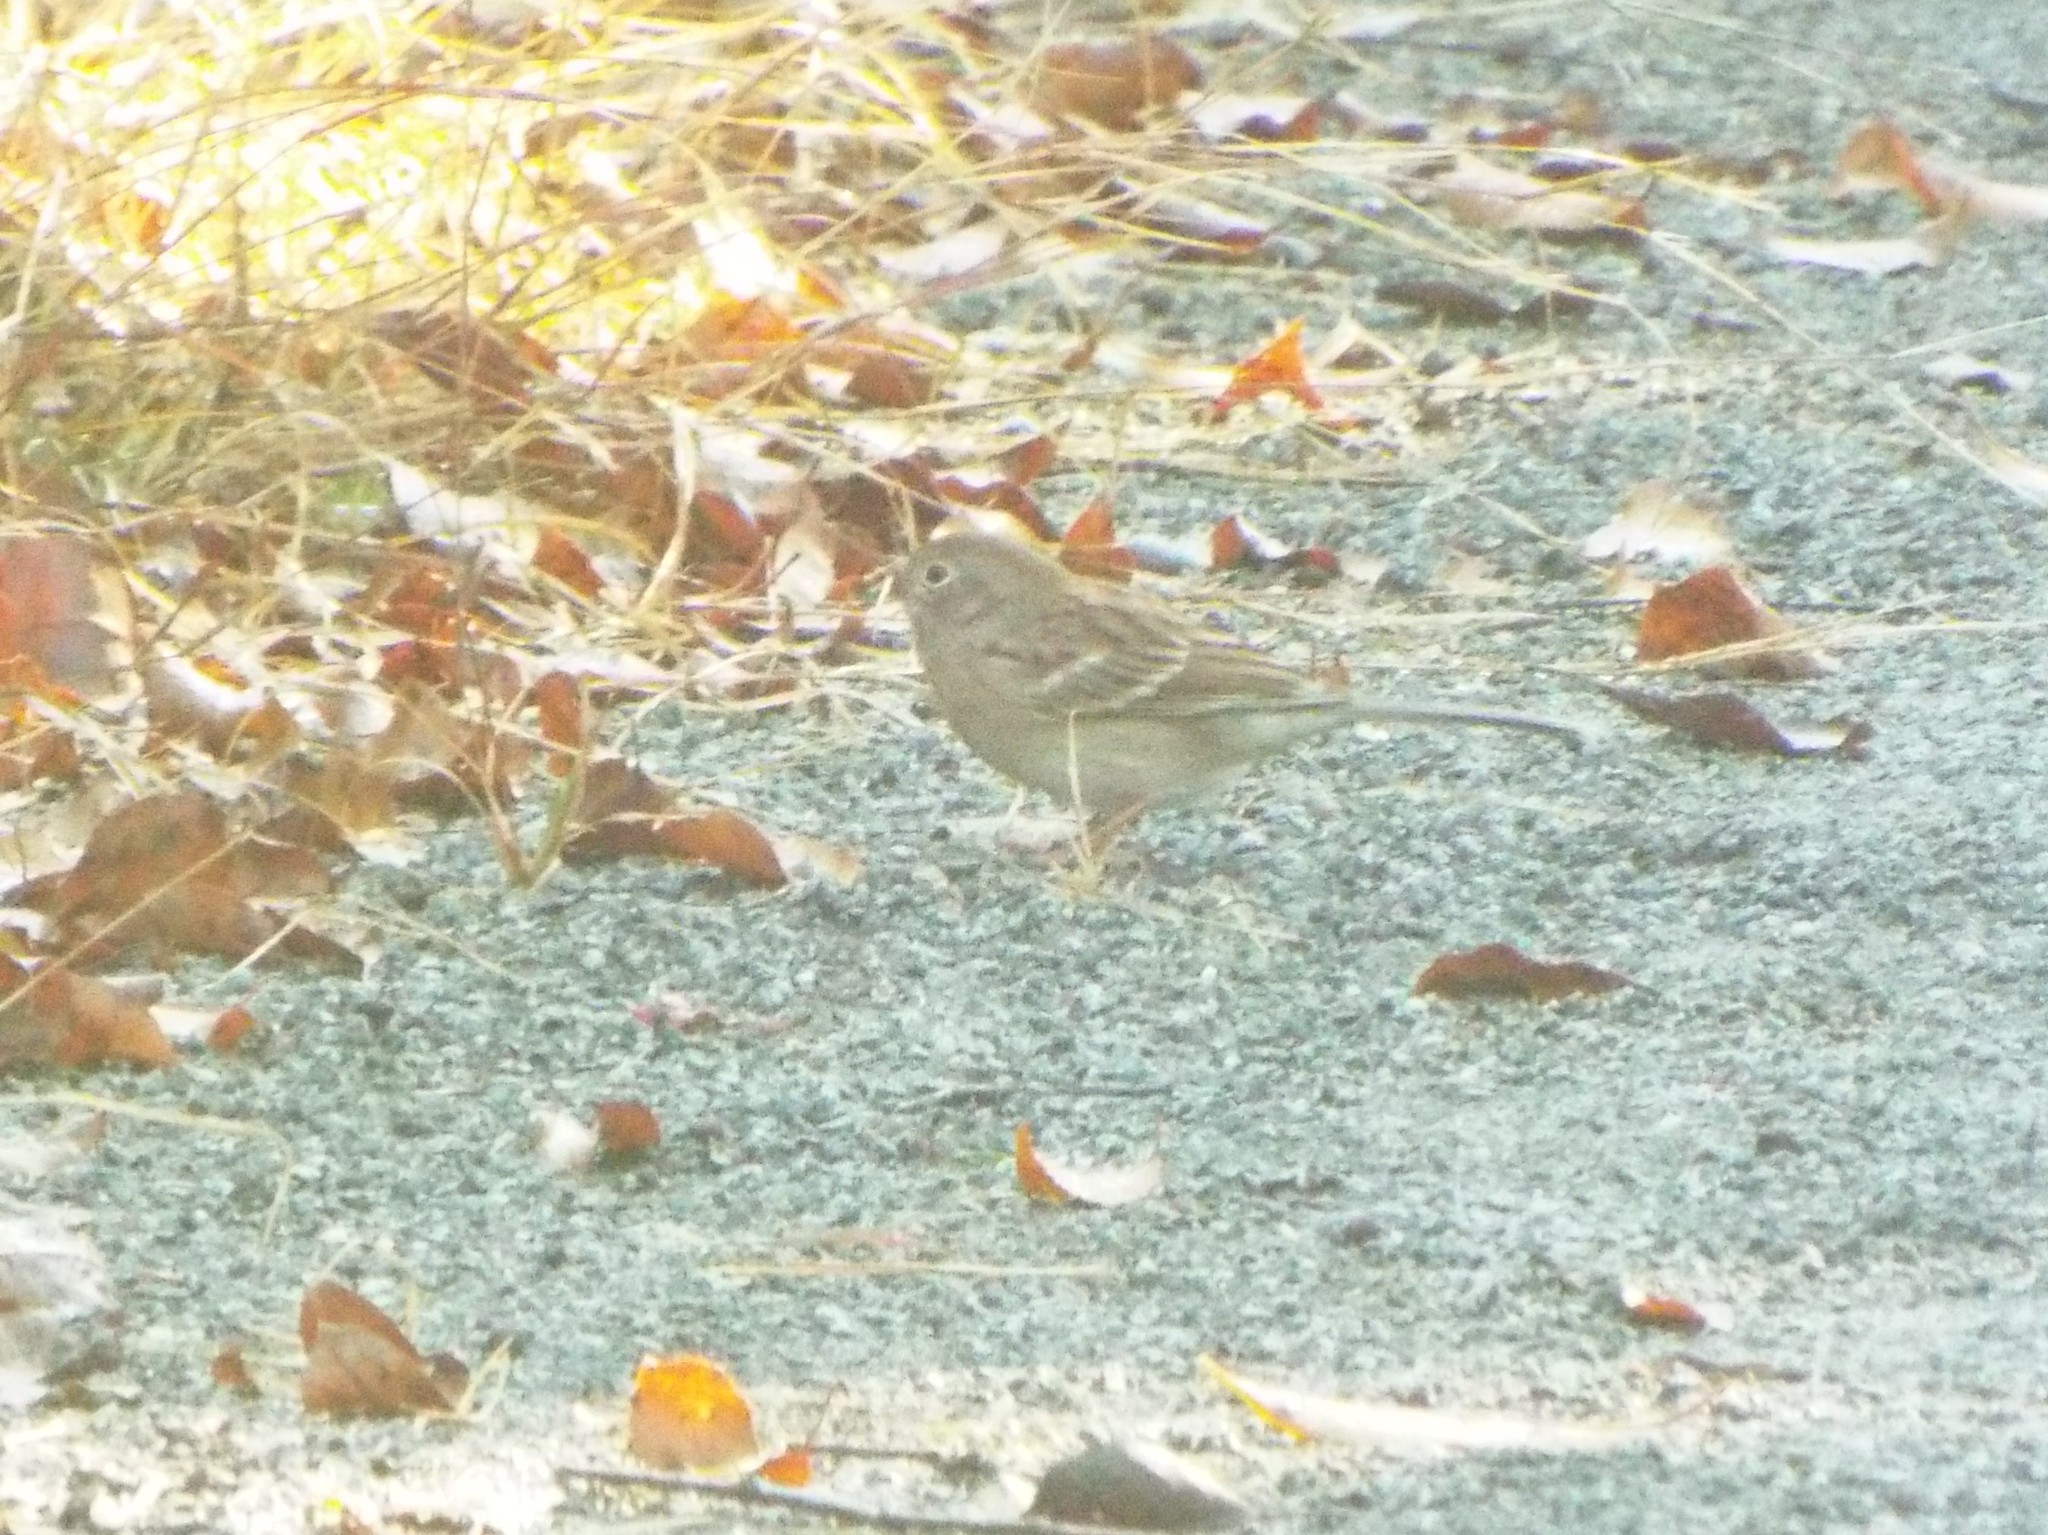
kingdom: Animalia
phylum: Chordata
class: Aves
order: Passeriformes
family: Passerellidae
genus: Spizella
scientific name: Spizella pusilla
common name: Field sparrow
